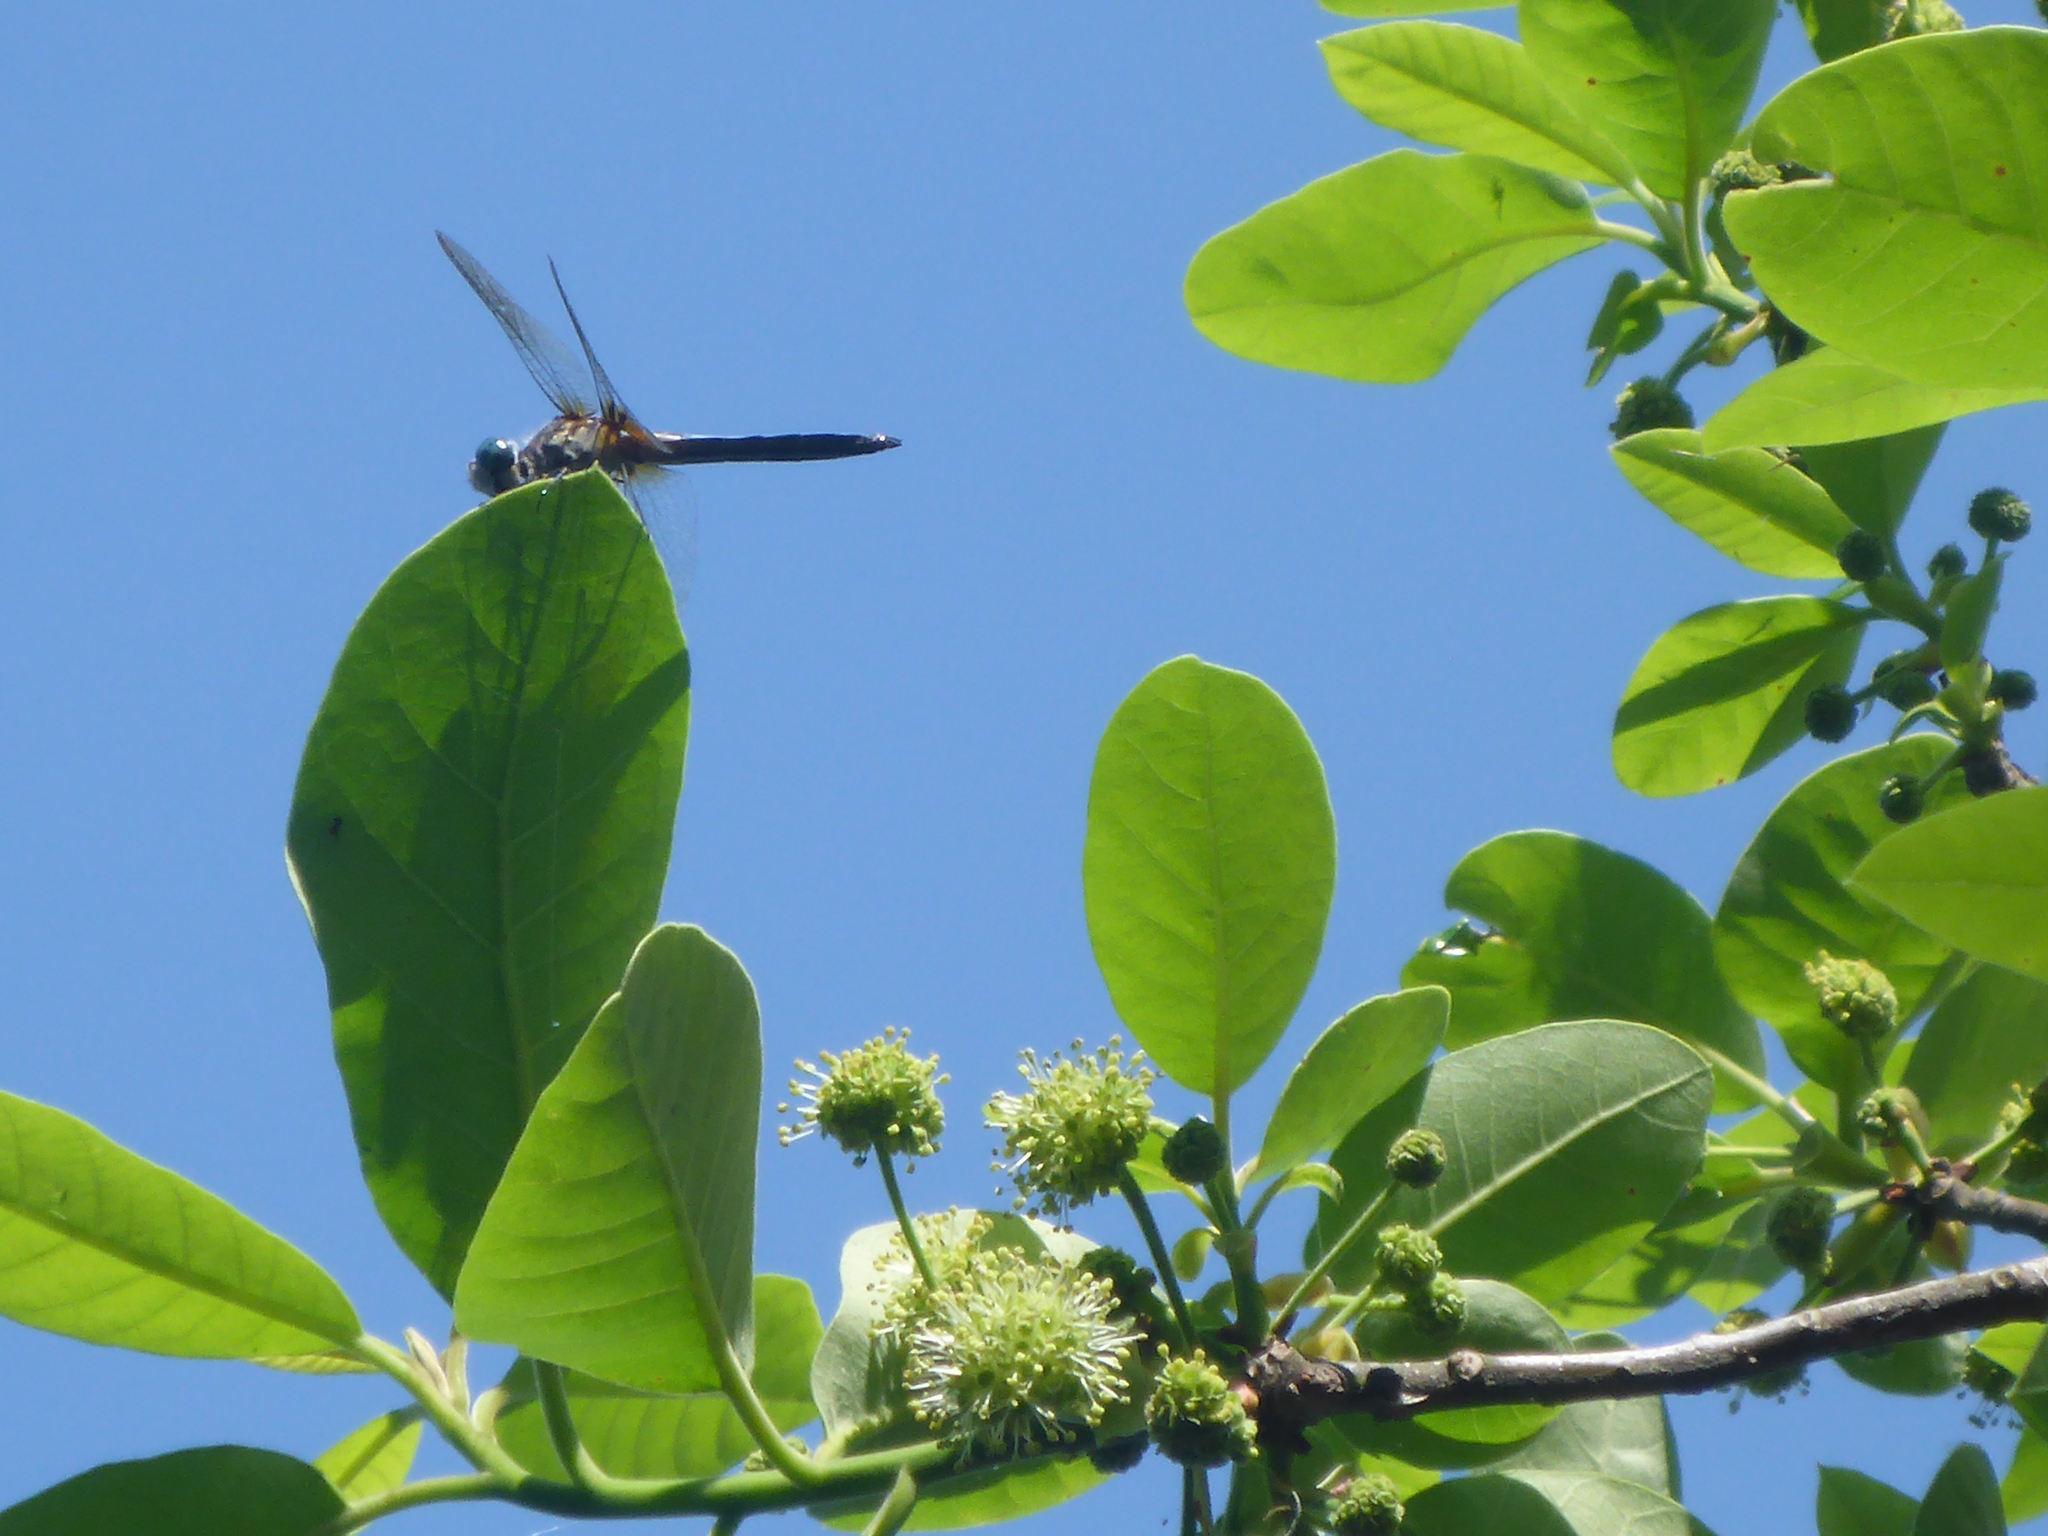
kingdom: Animalia
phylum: Arthropoda
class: Insecta
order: Odonata
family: Libellulidae
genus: Pachydiplax
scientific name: Pachydiplax longipennis
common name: Blue dasher
